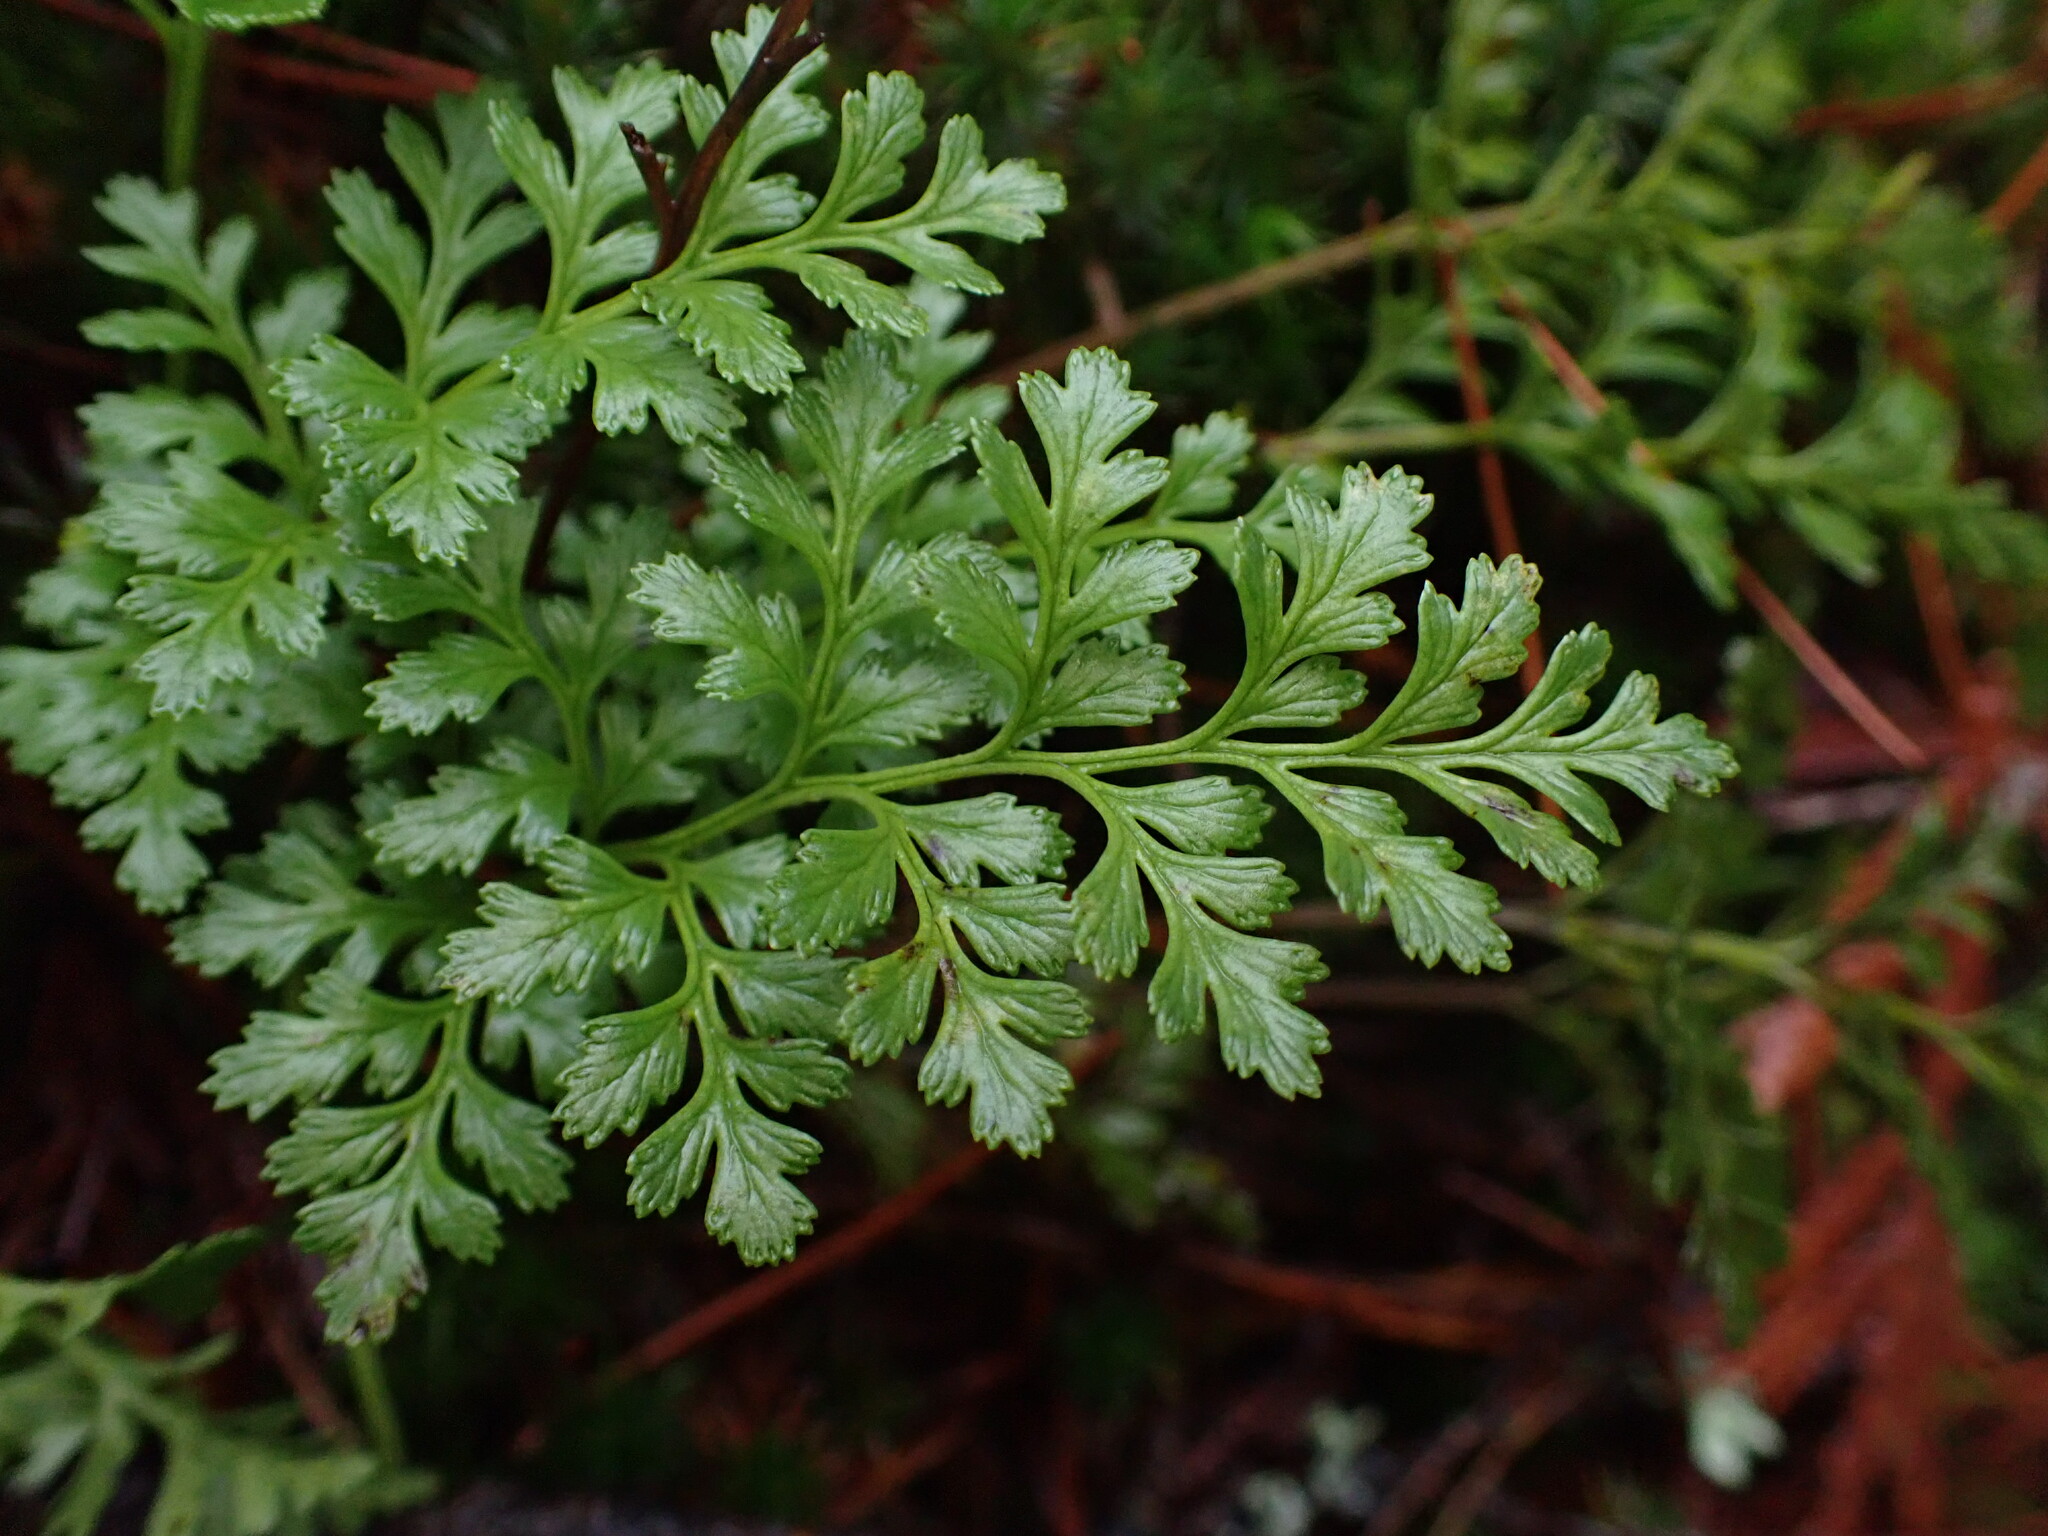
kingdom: Plantae
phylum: Tracheophyta
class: Polypodiopsida
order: Polypodiales
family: Pteridaceae
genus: Cryptogramma
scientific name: Cryptogramma acrostichoides
